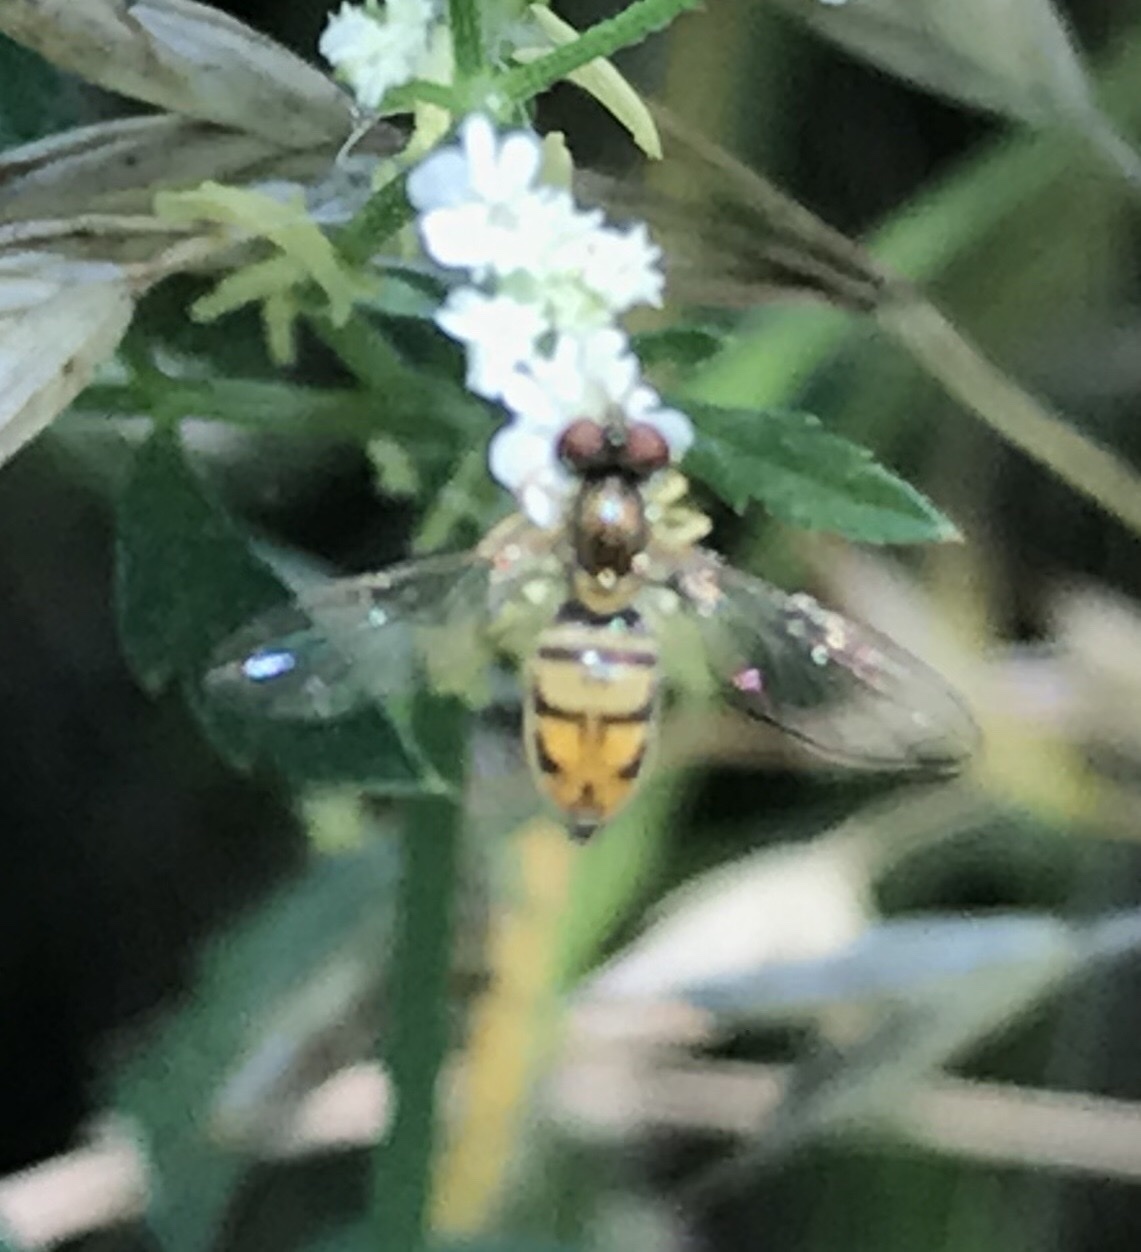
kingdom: Animalia
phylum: Arthropoda
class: Insecta
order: Diptera
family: Syrphidae
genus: Toxomerus
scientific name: Toxomerus marginatus
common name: Syrphid fly
